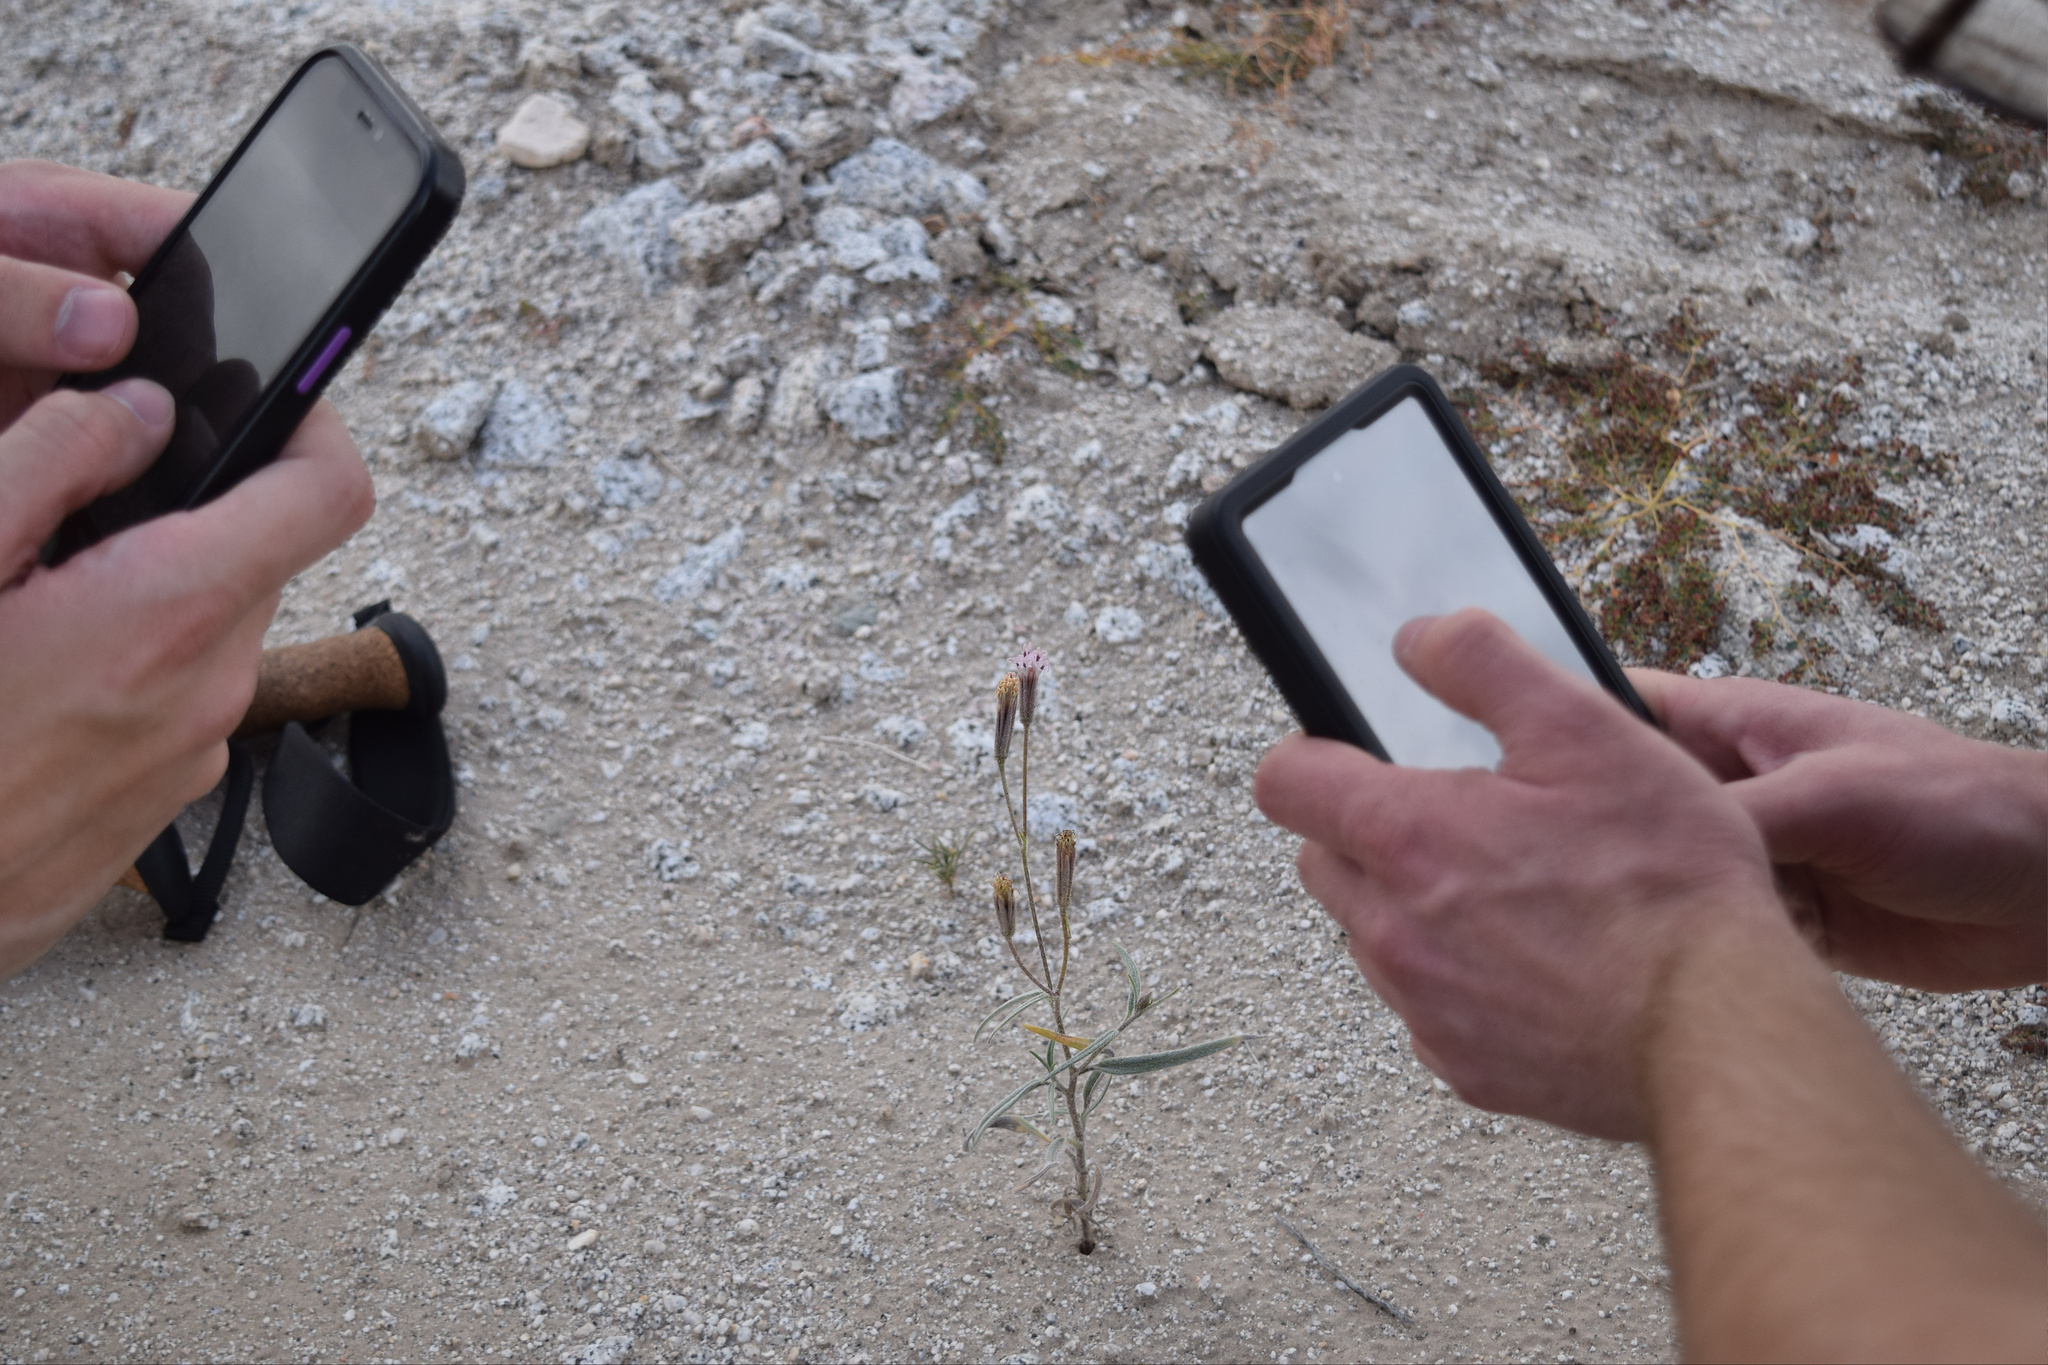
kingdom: Plantae
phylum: Tracheophyta
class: Magnoliopsida
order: Asterales
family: Asteraceae
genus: Palafoxia
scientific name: Palafoxia arida
